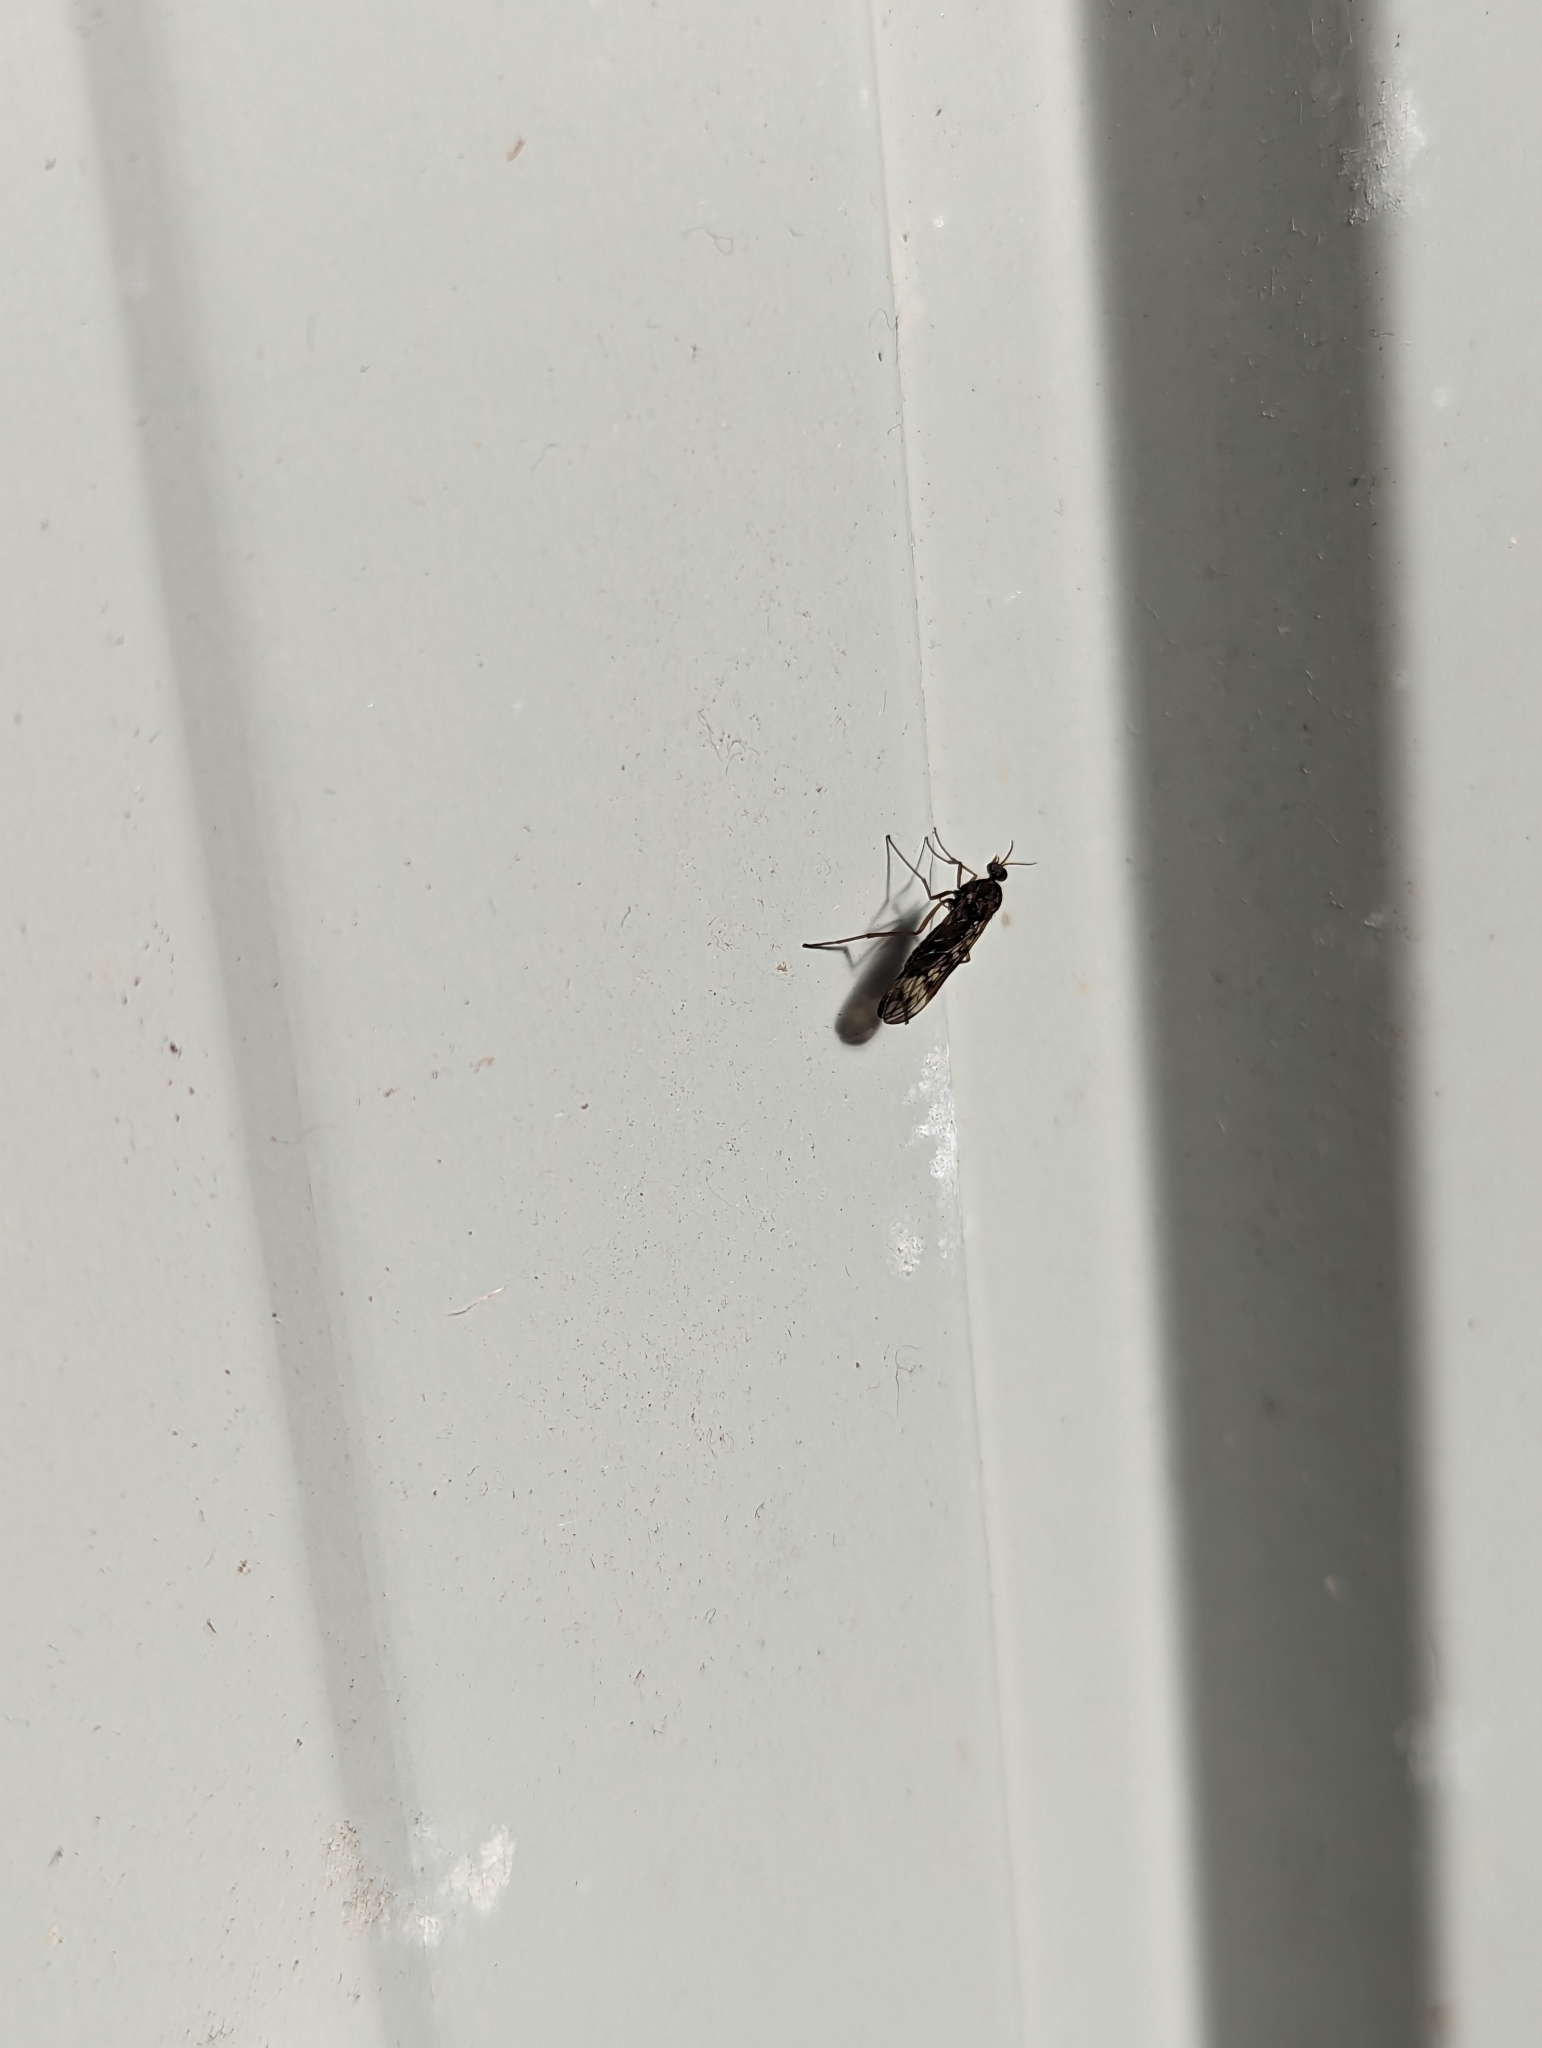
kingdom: Animalia
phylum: Arthropoda
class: Insecta
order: Diptera
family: Anisopodidae
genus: Sylvicola
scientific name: Sylvicola dubius
